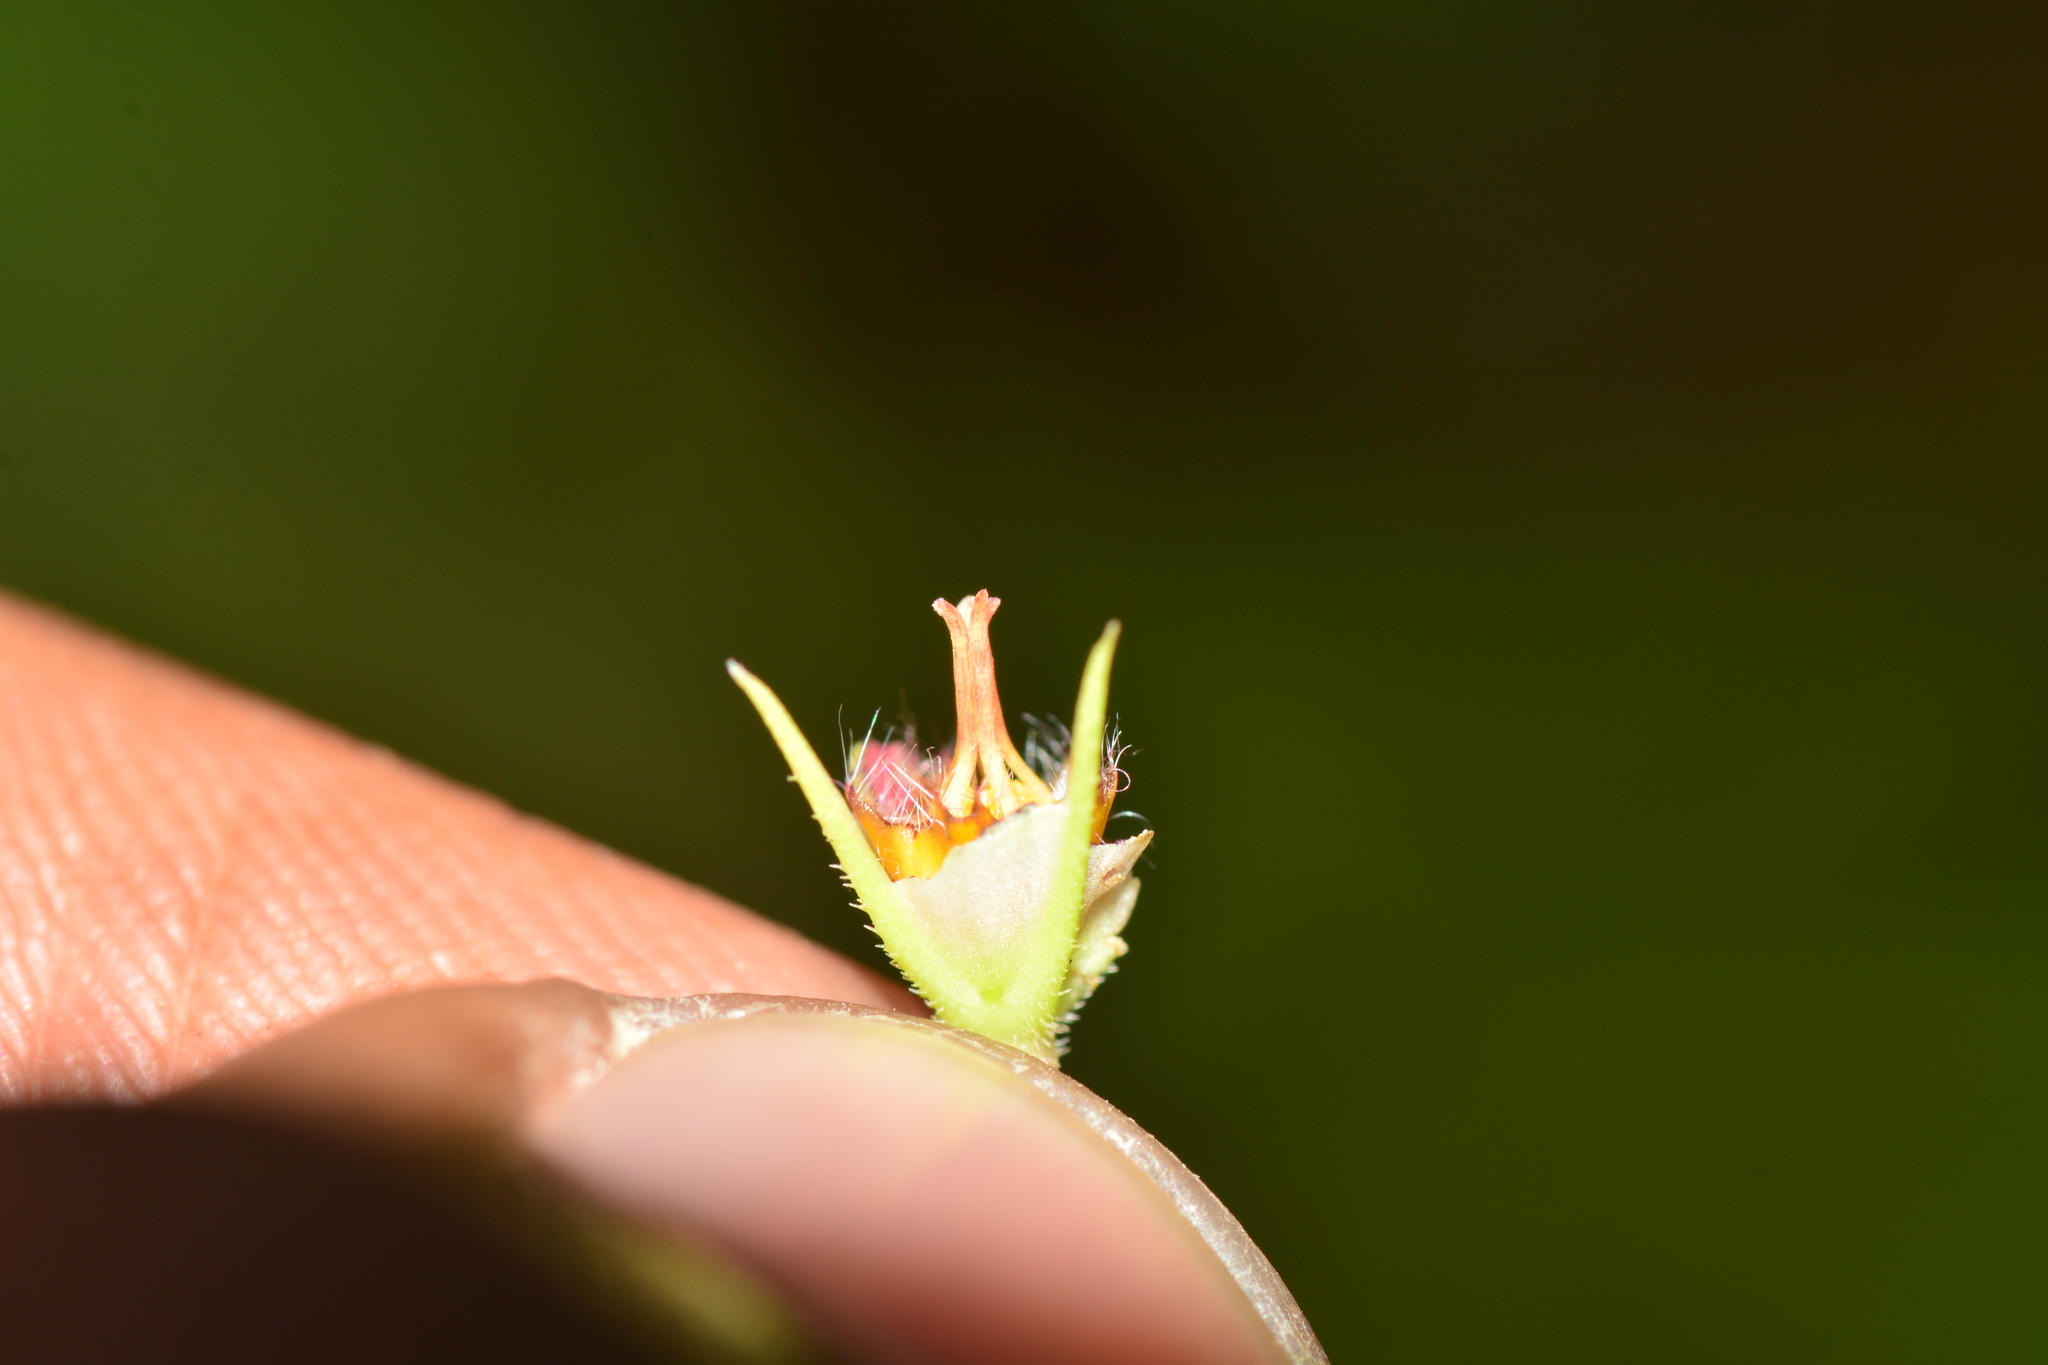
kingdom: Plantae
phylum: Tracheophyta
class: Magnoliopsida
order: Gentianales
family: Apocynaceae
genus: Ceropegia
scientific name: Ceropegia attenuata
